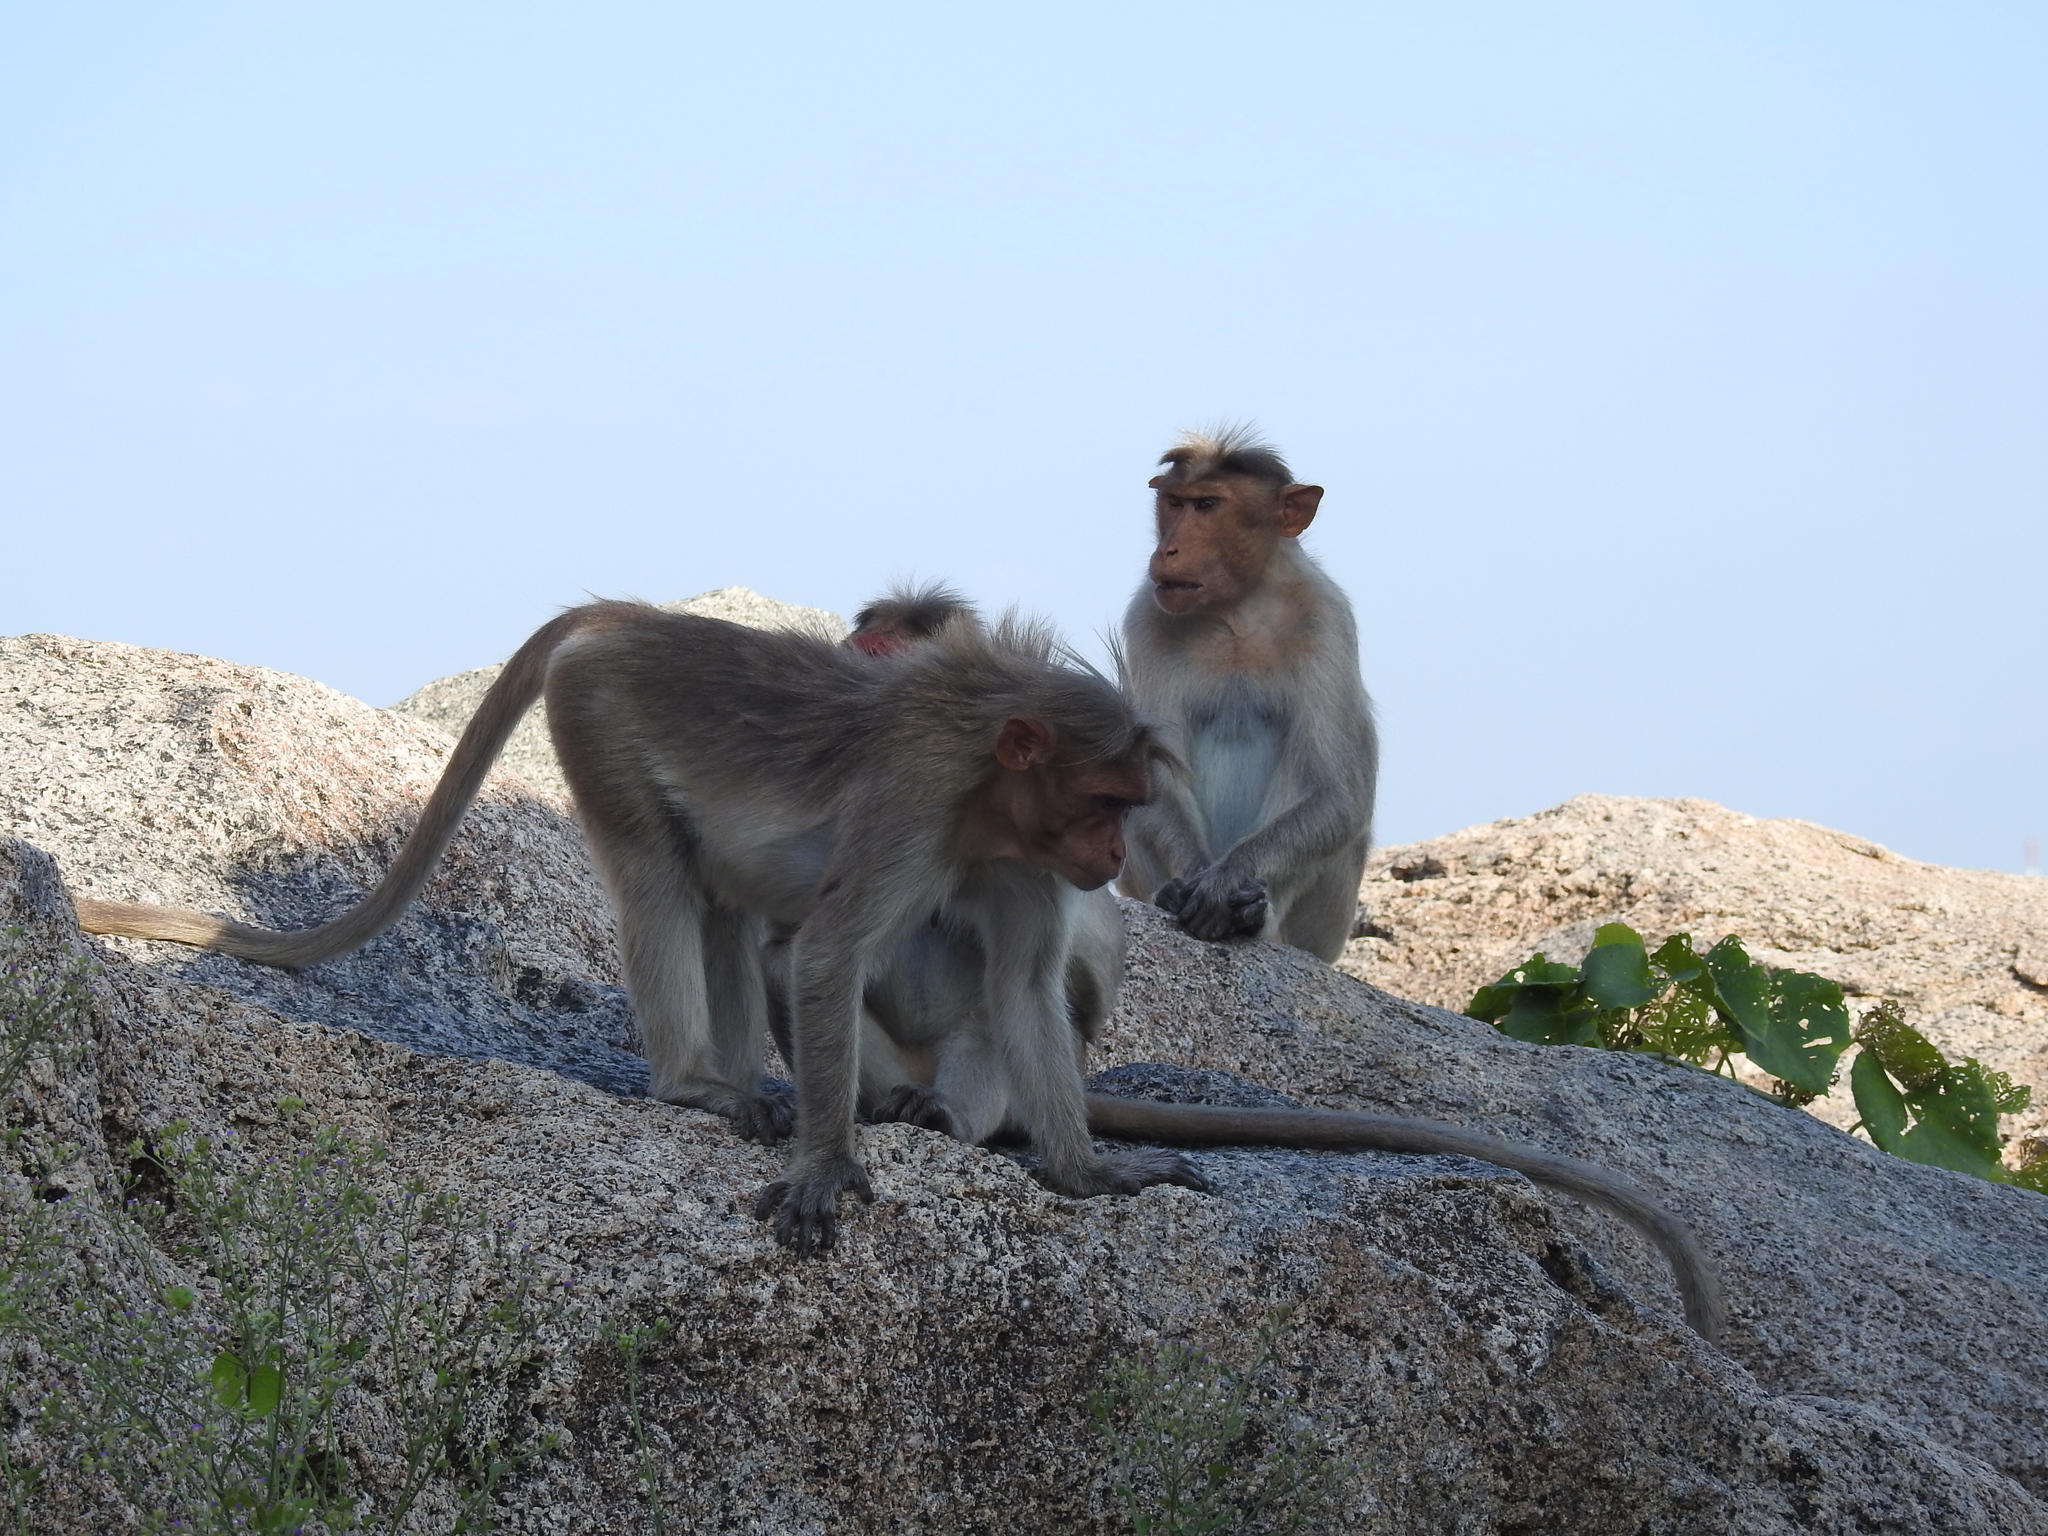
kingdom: Animalia
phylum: Chordata
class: Mammalia
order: Primates
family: Cercopithecidae
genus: Macaca
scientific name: Macaca radiata
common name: Bonnet macaque
